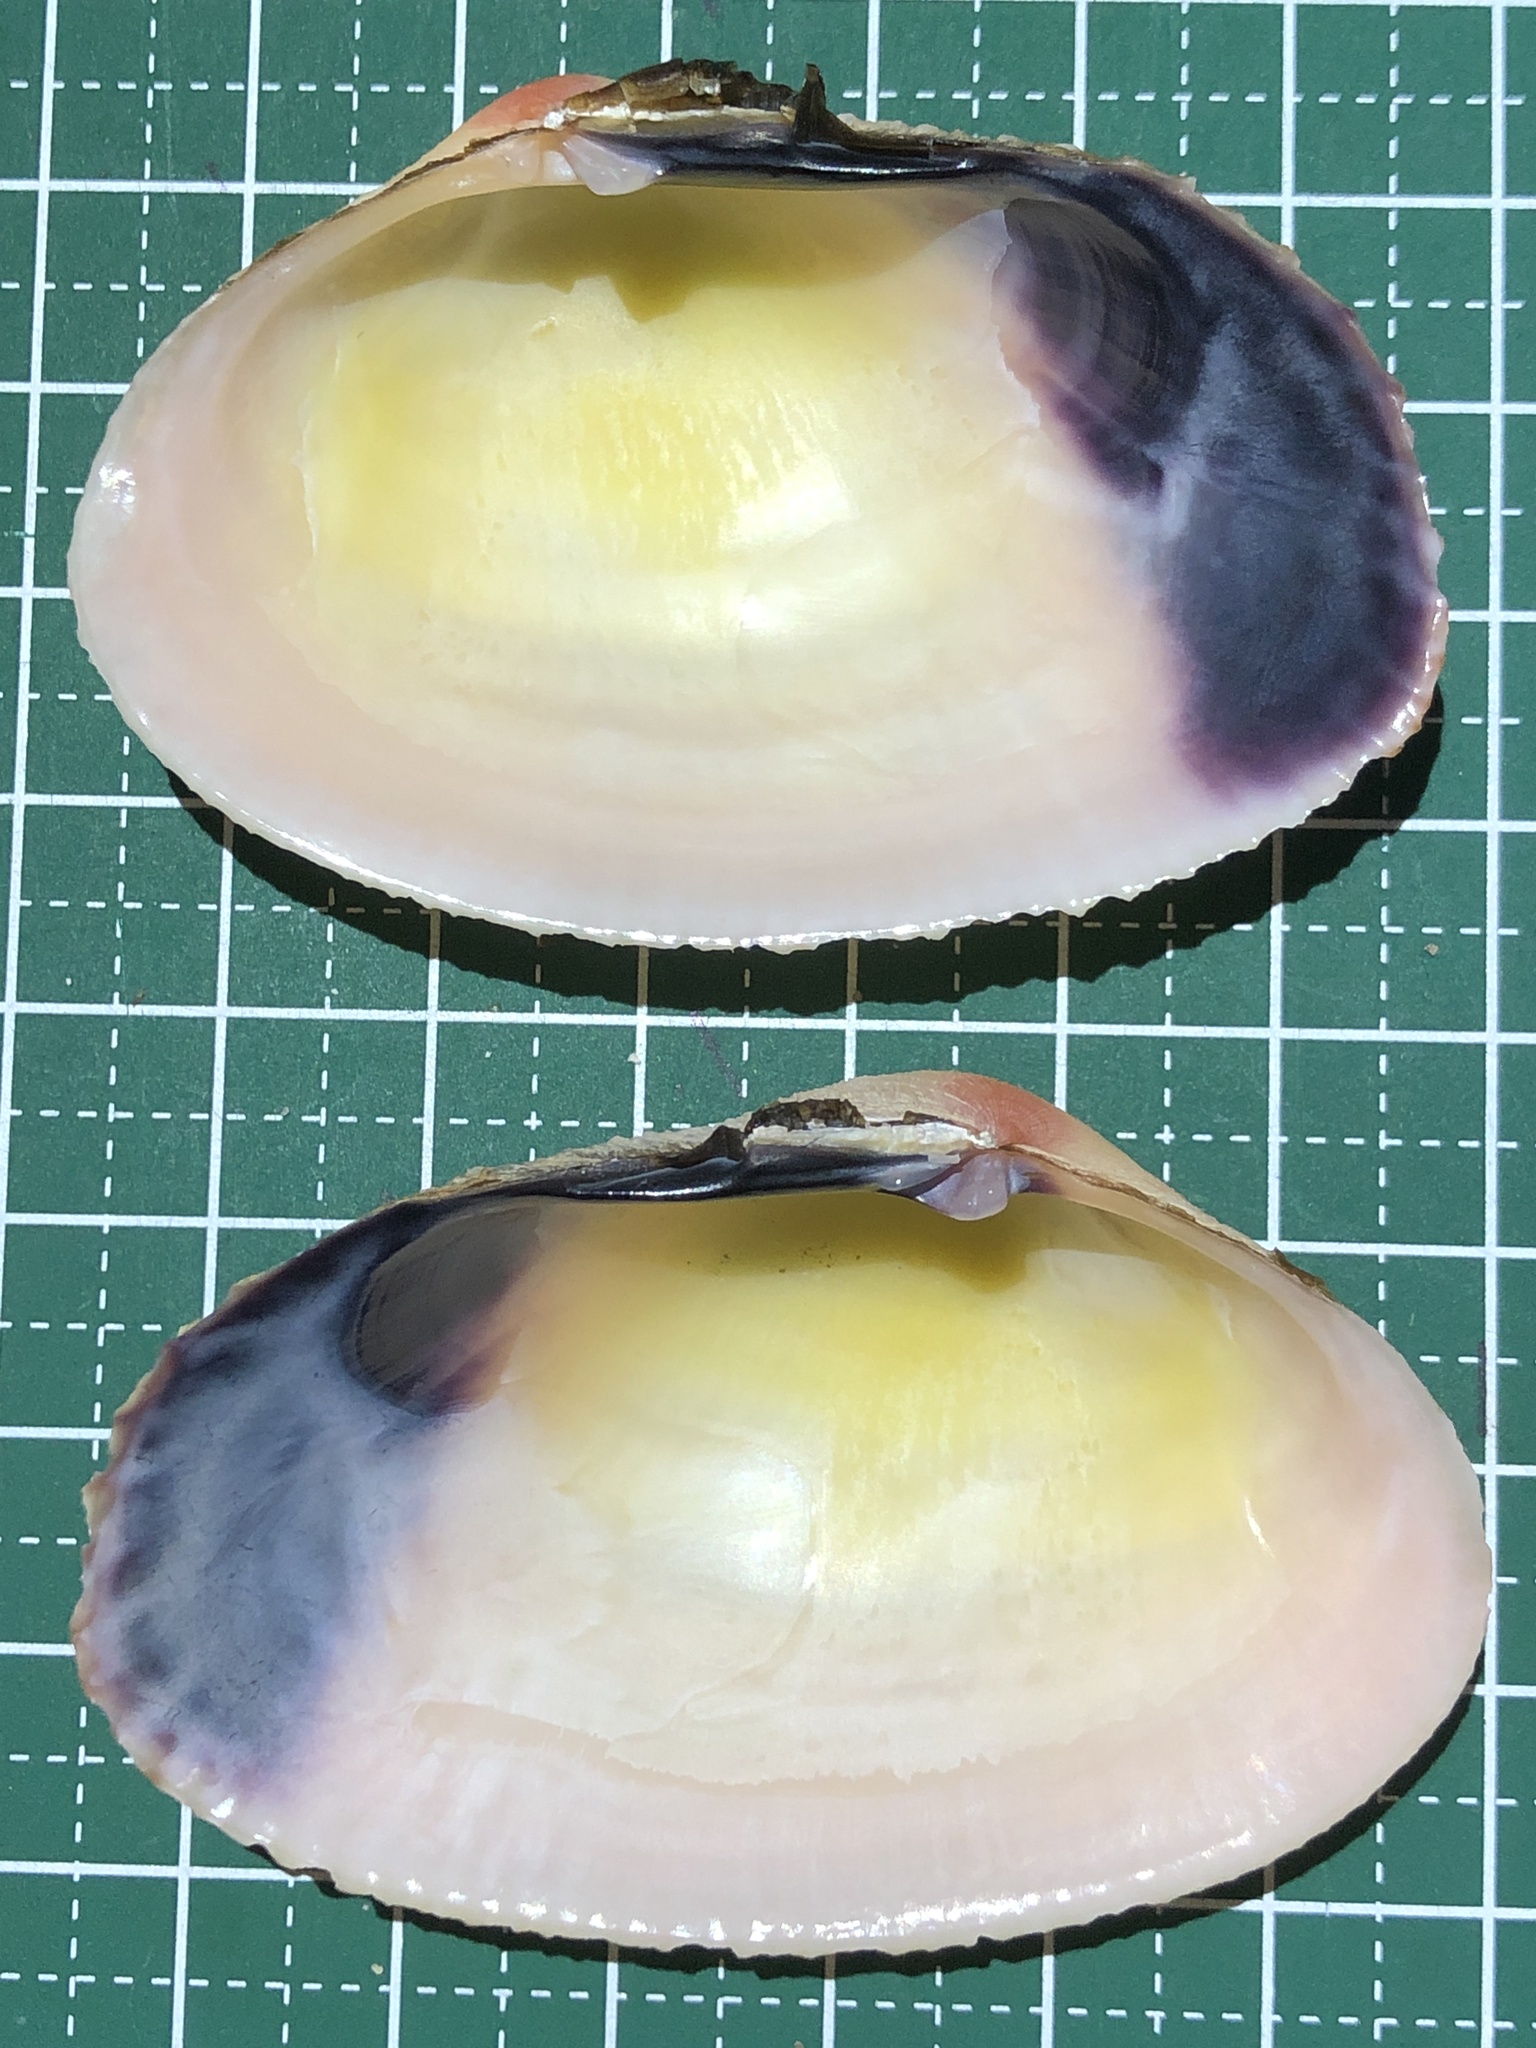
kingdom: Animalia
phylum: Mollusca
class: Bivalvia
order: Cardiida
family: Psammobiidae
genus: Asaphis
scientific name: Asaphis violascens
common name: Pacific asaphis
